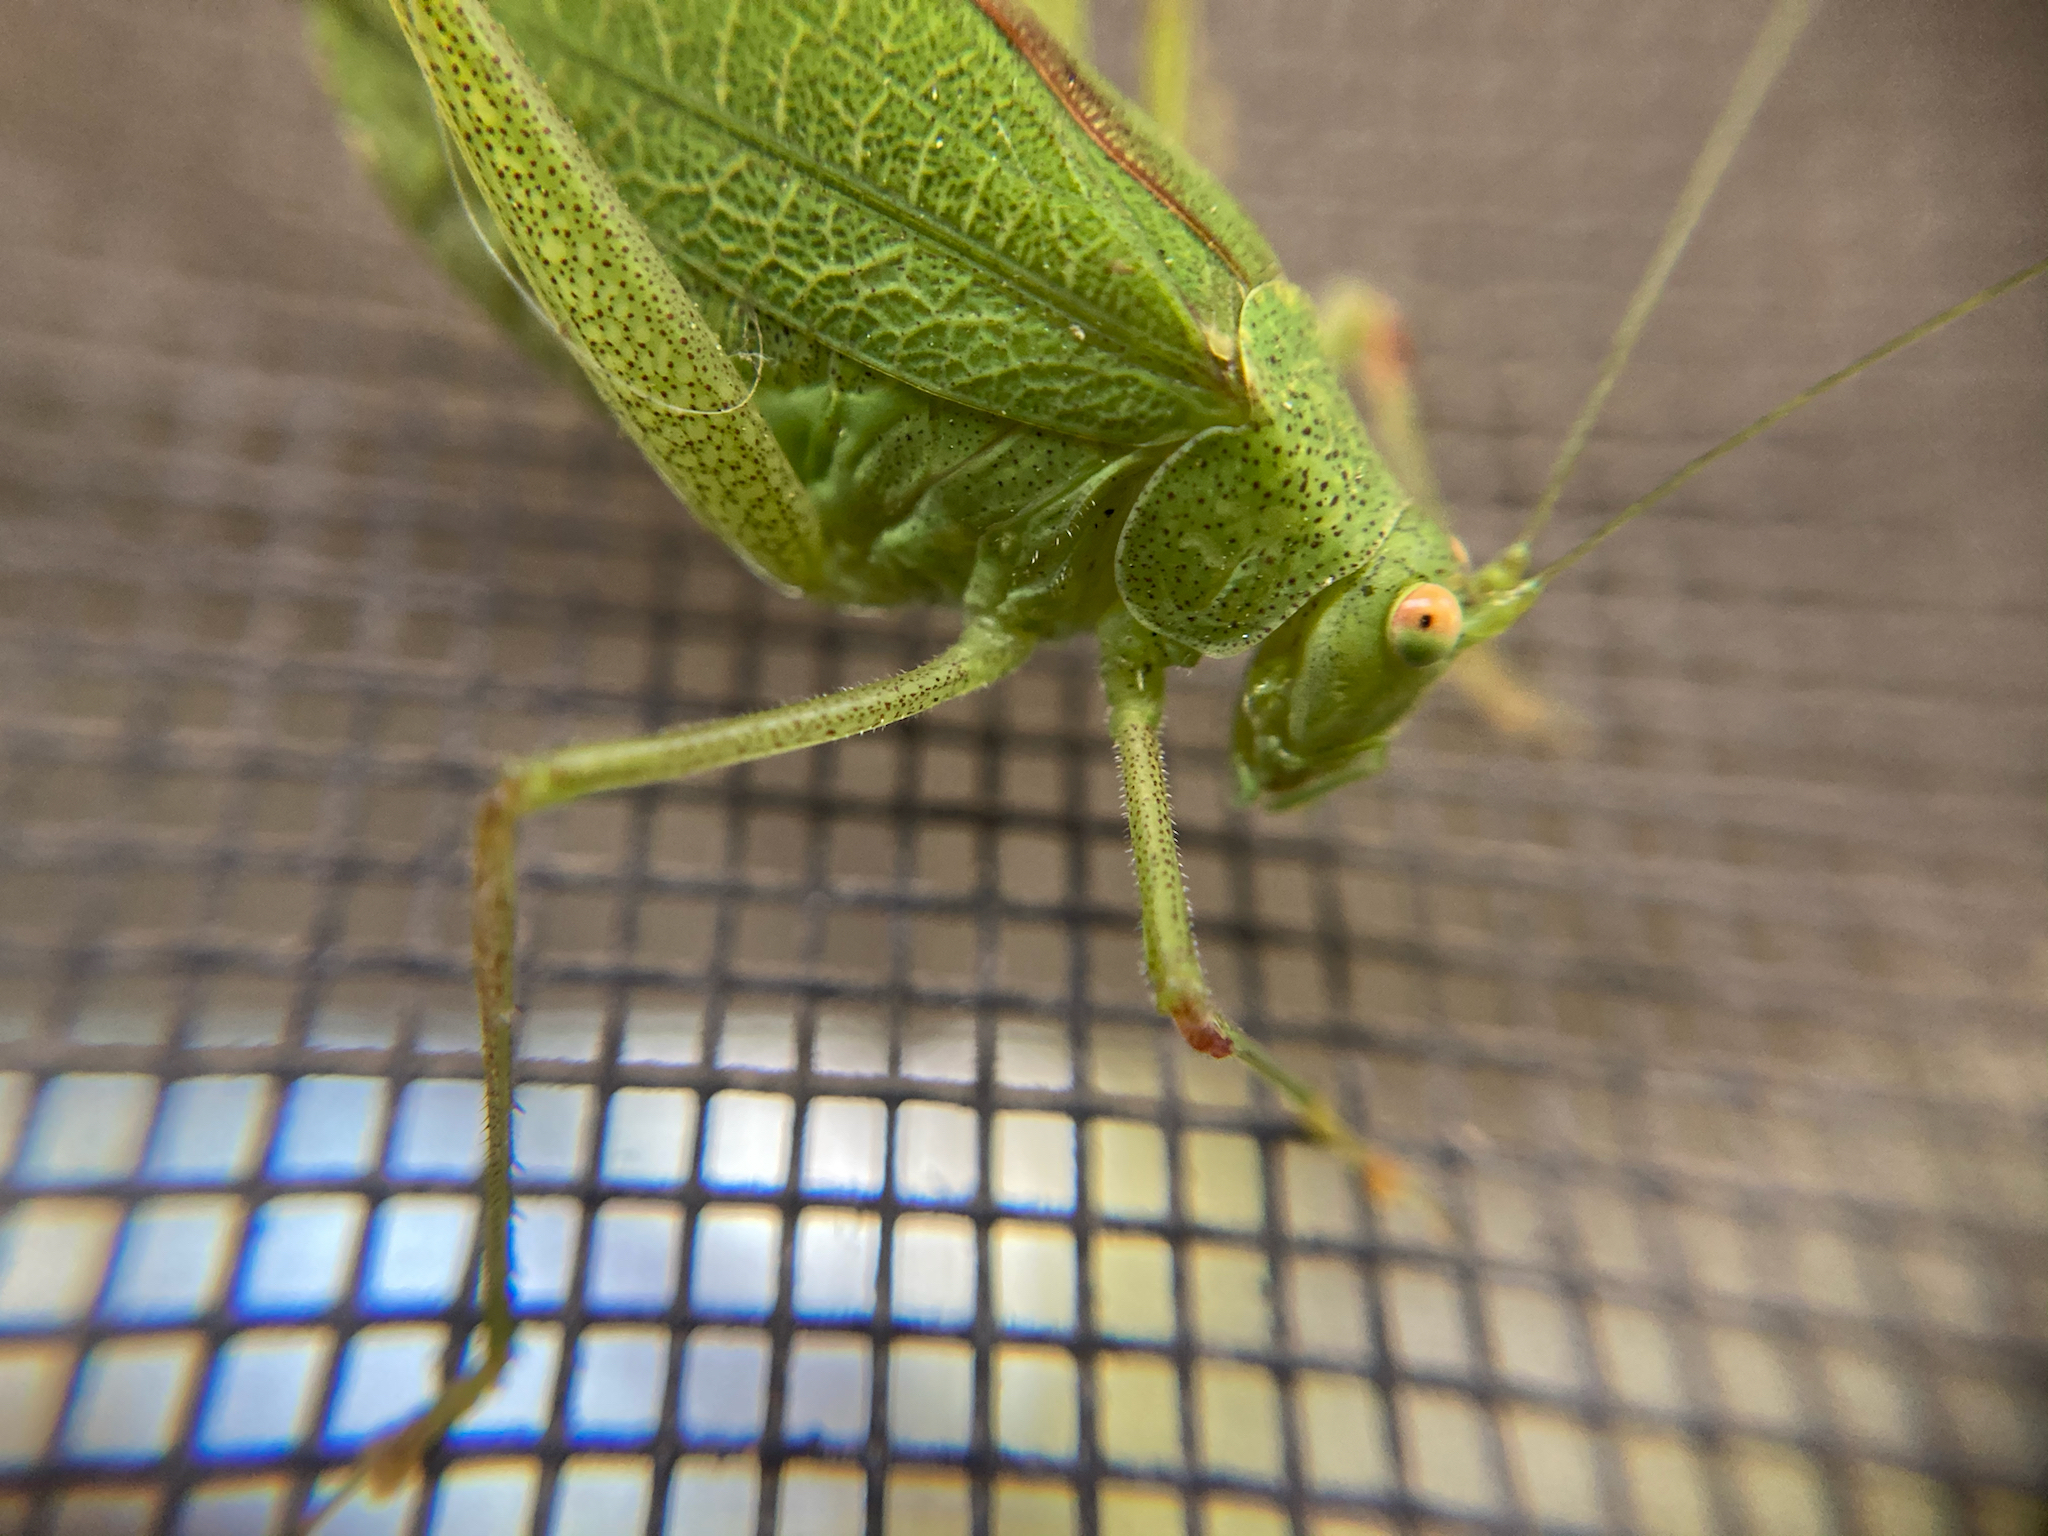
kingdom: Animalia
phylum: Arthropoda
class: Insecta
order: Orthoptera
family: Tettigoniidae
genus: Phaneroptera
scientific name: Phaneroptera nana
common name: Southern sickle bush-cricket
